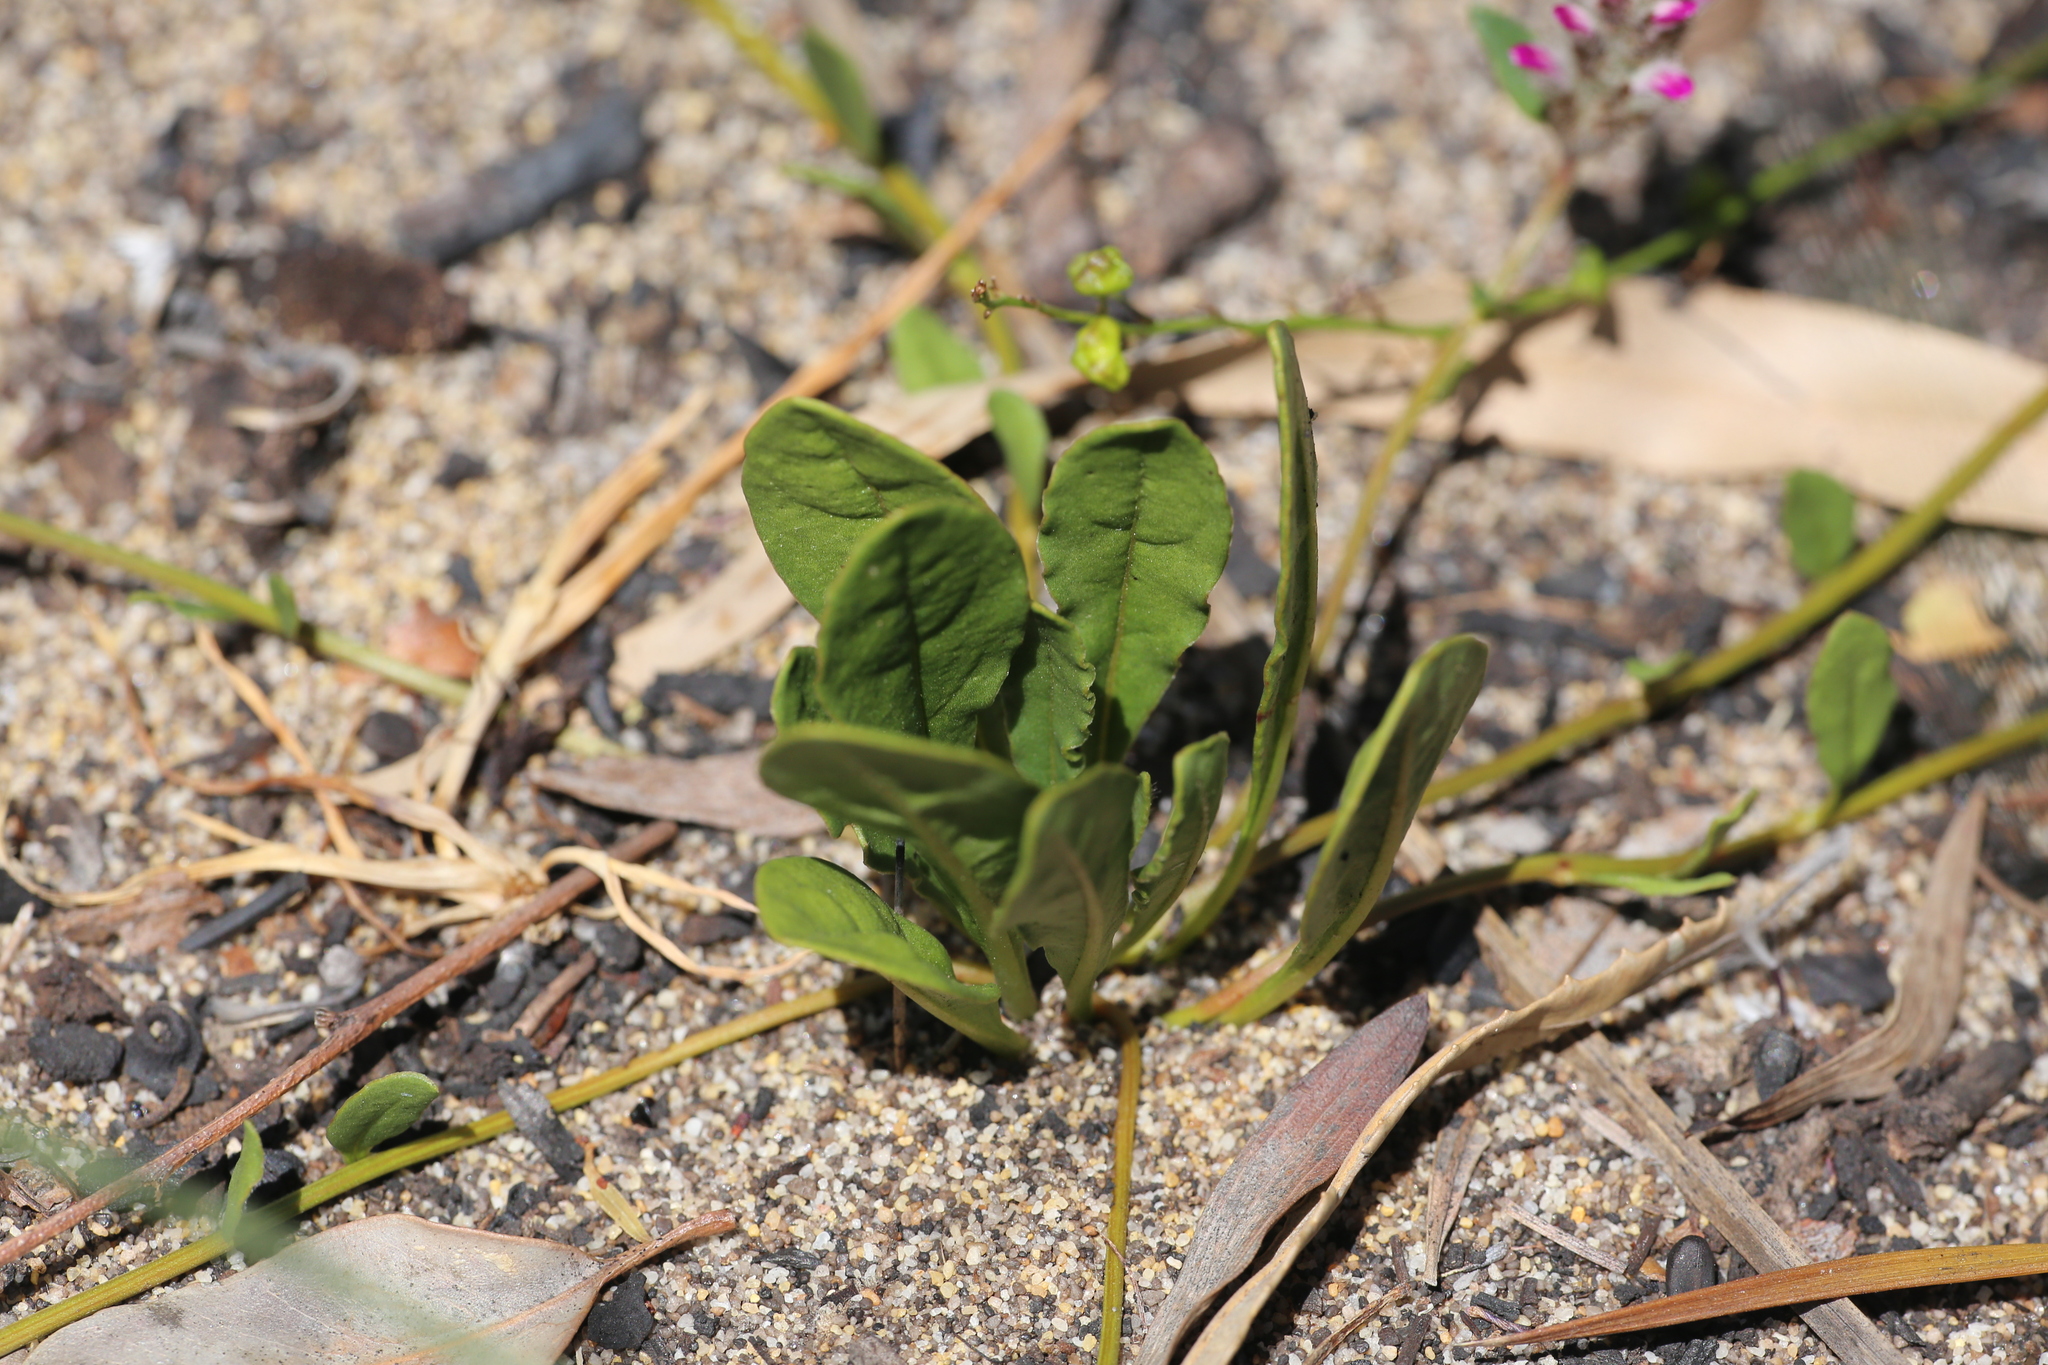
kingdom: Plantae
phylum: Tracheophyta
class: Magnoliopsida
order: Caryophyllales
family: Amaranthaceae
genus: Ptilotus
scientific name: Ptilotus manglesii
